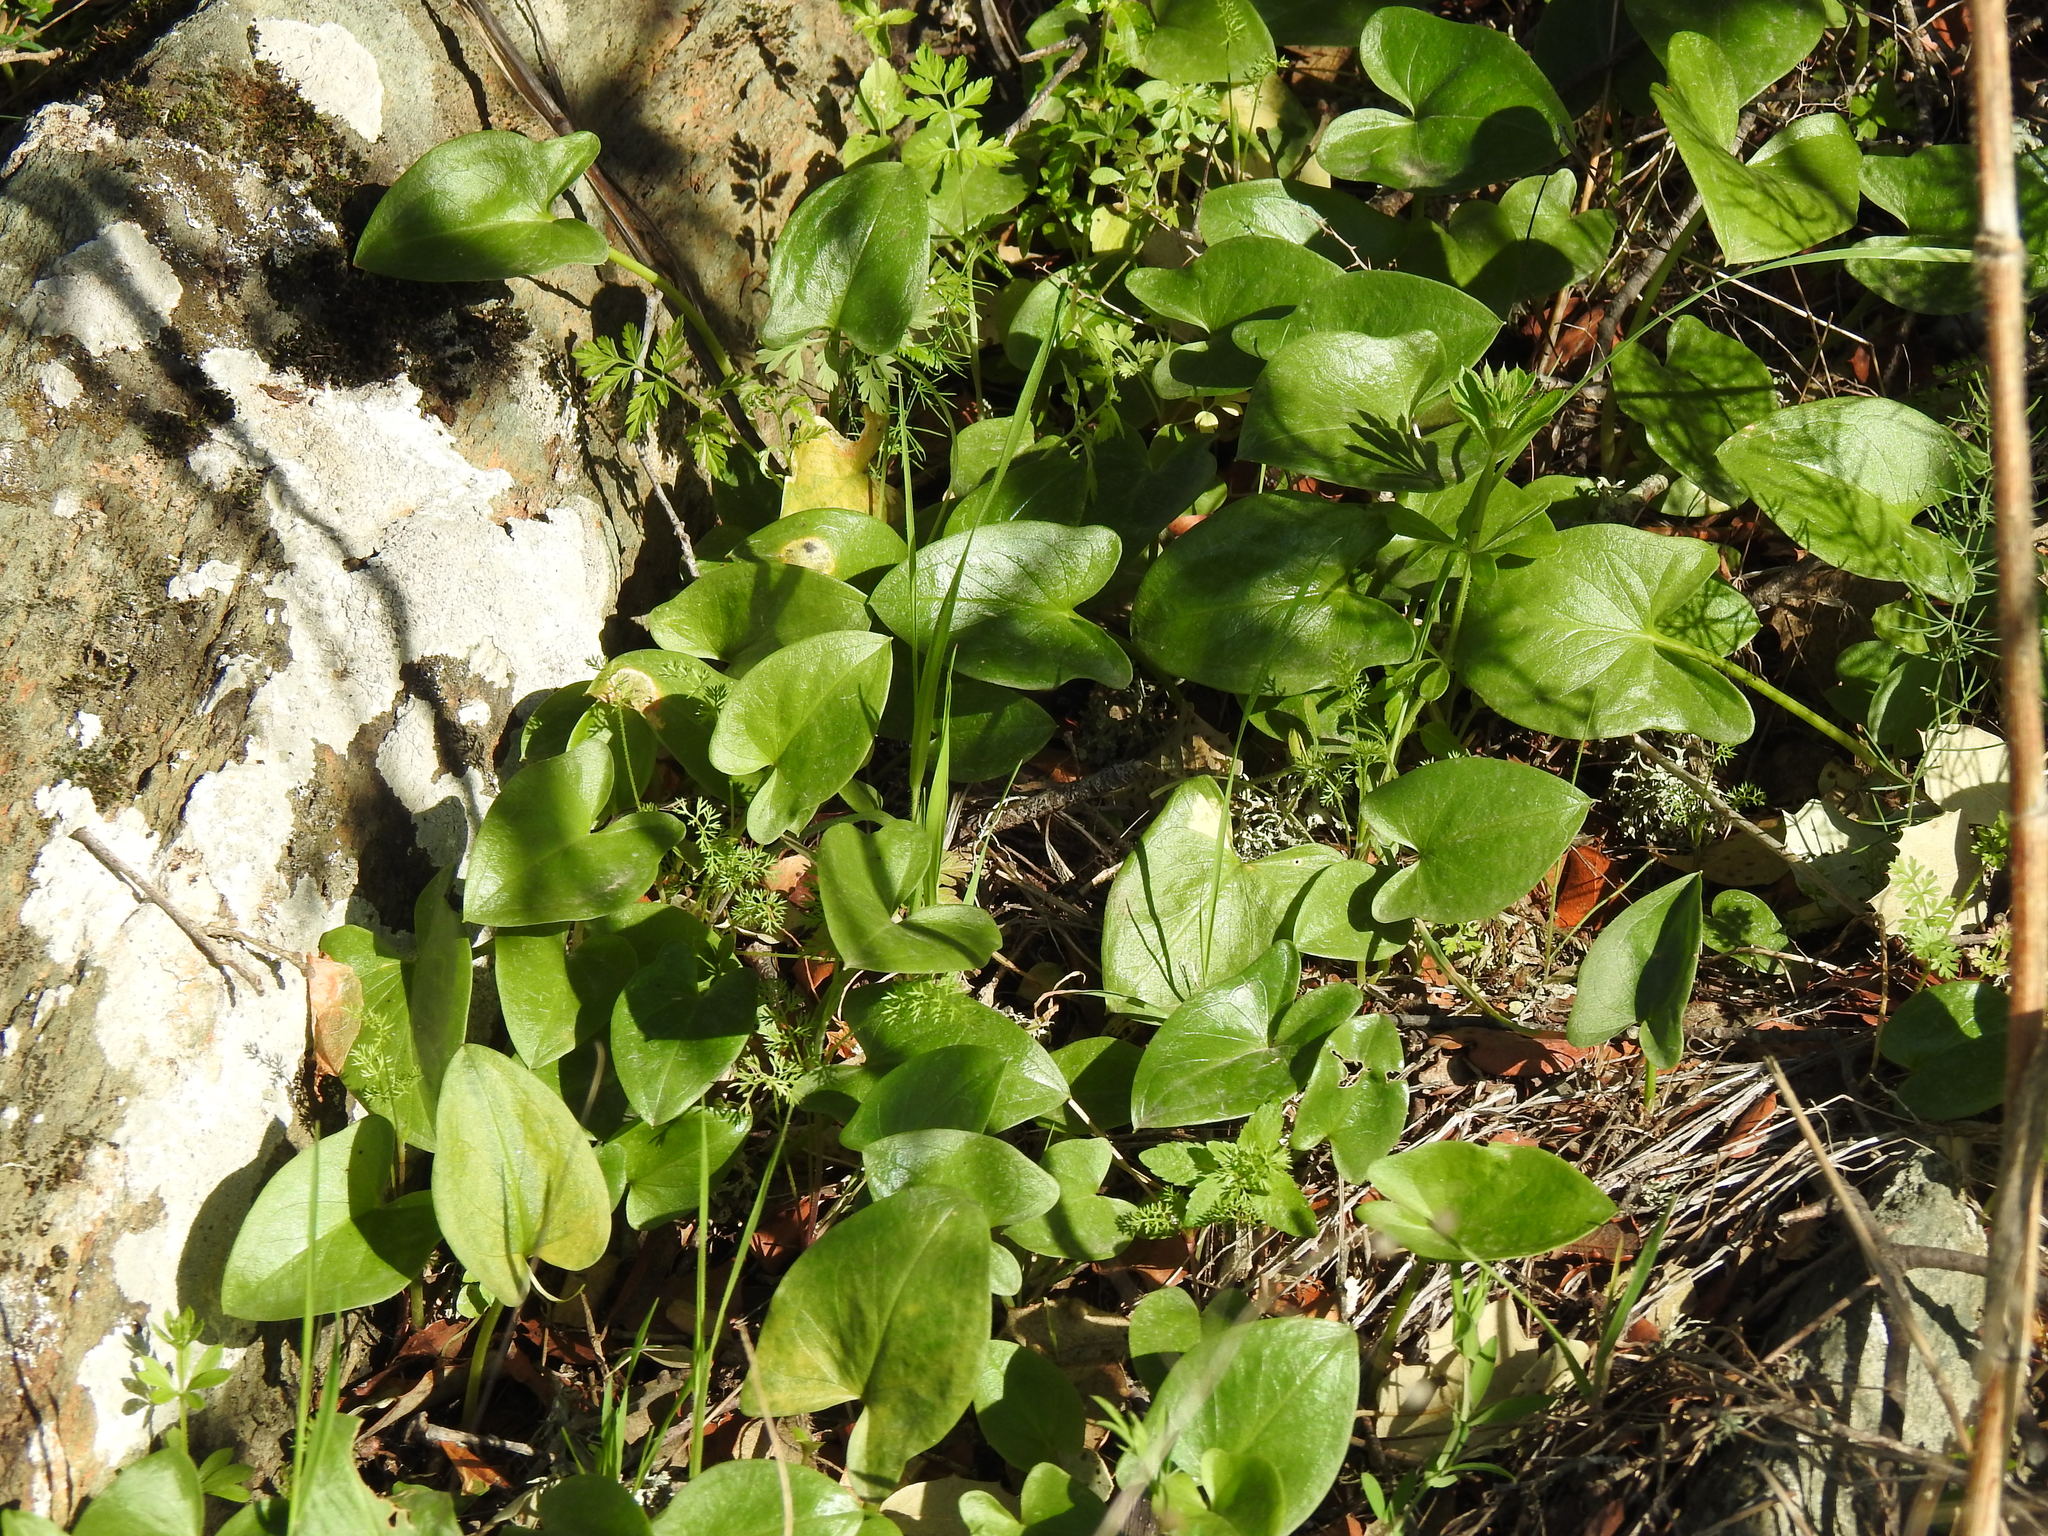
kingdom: Plantae
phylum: Tracheophyta
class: Liliopsida
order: Alismatales
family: Araceae
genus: Arisarum
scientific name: Arisarum simorrhinum
